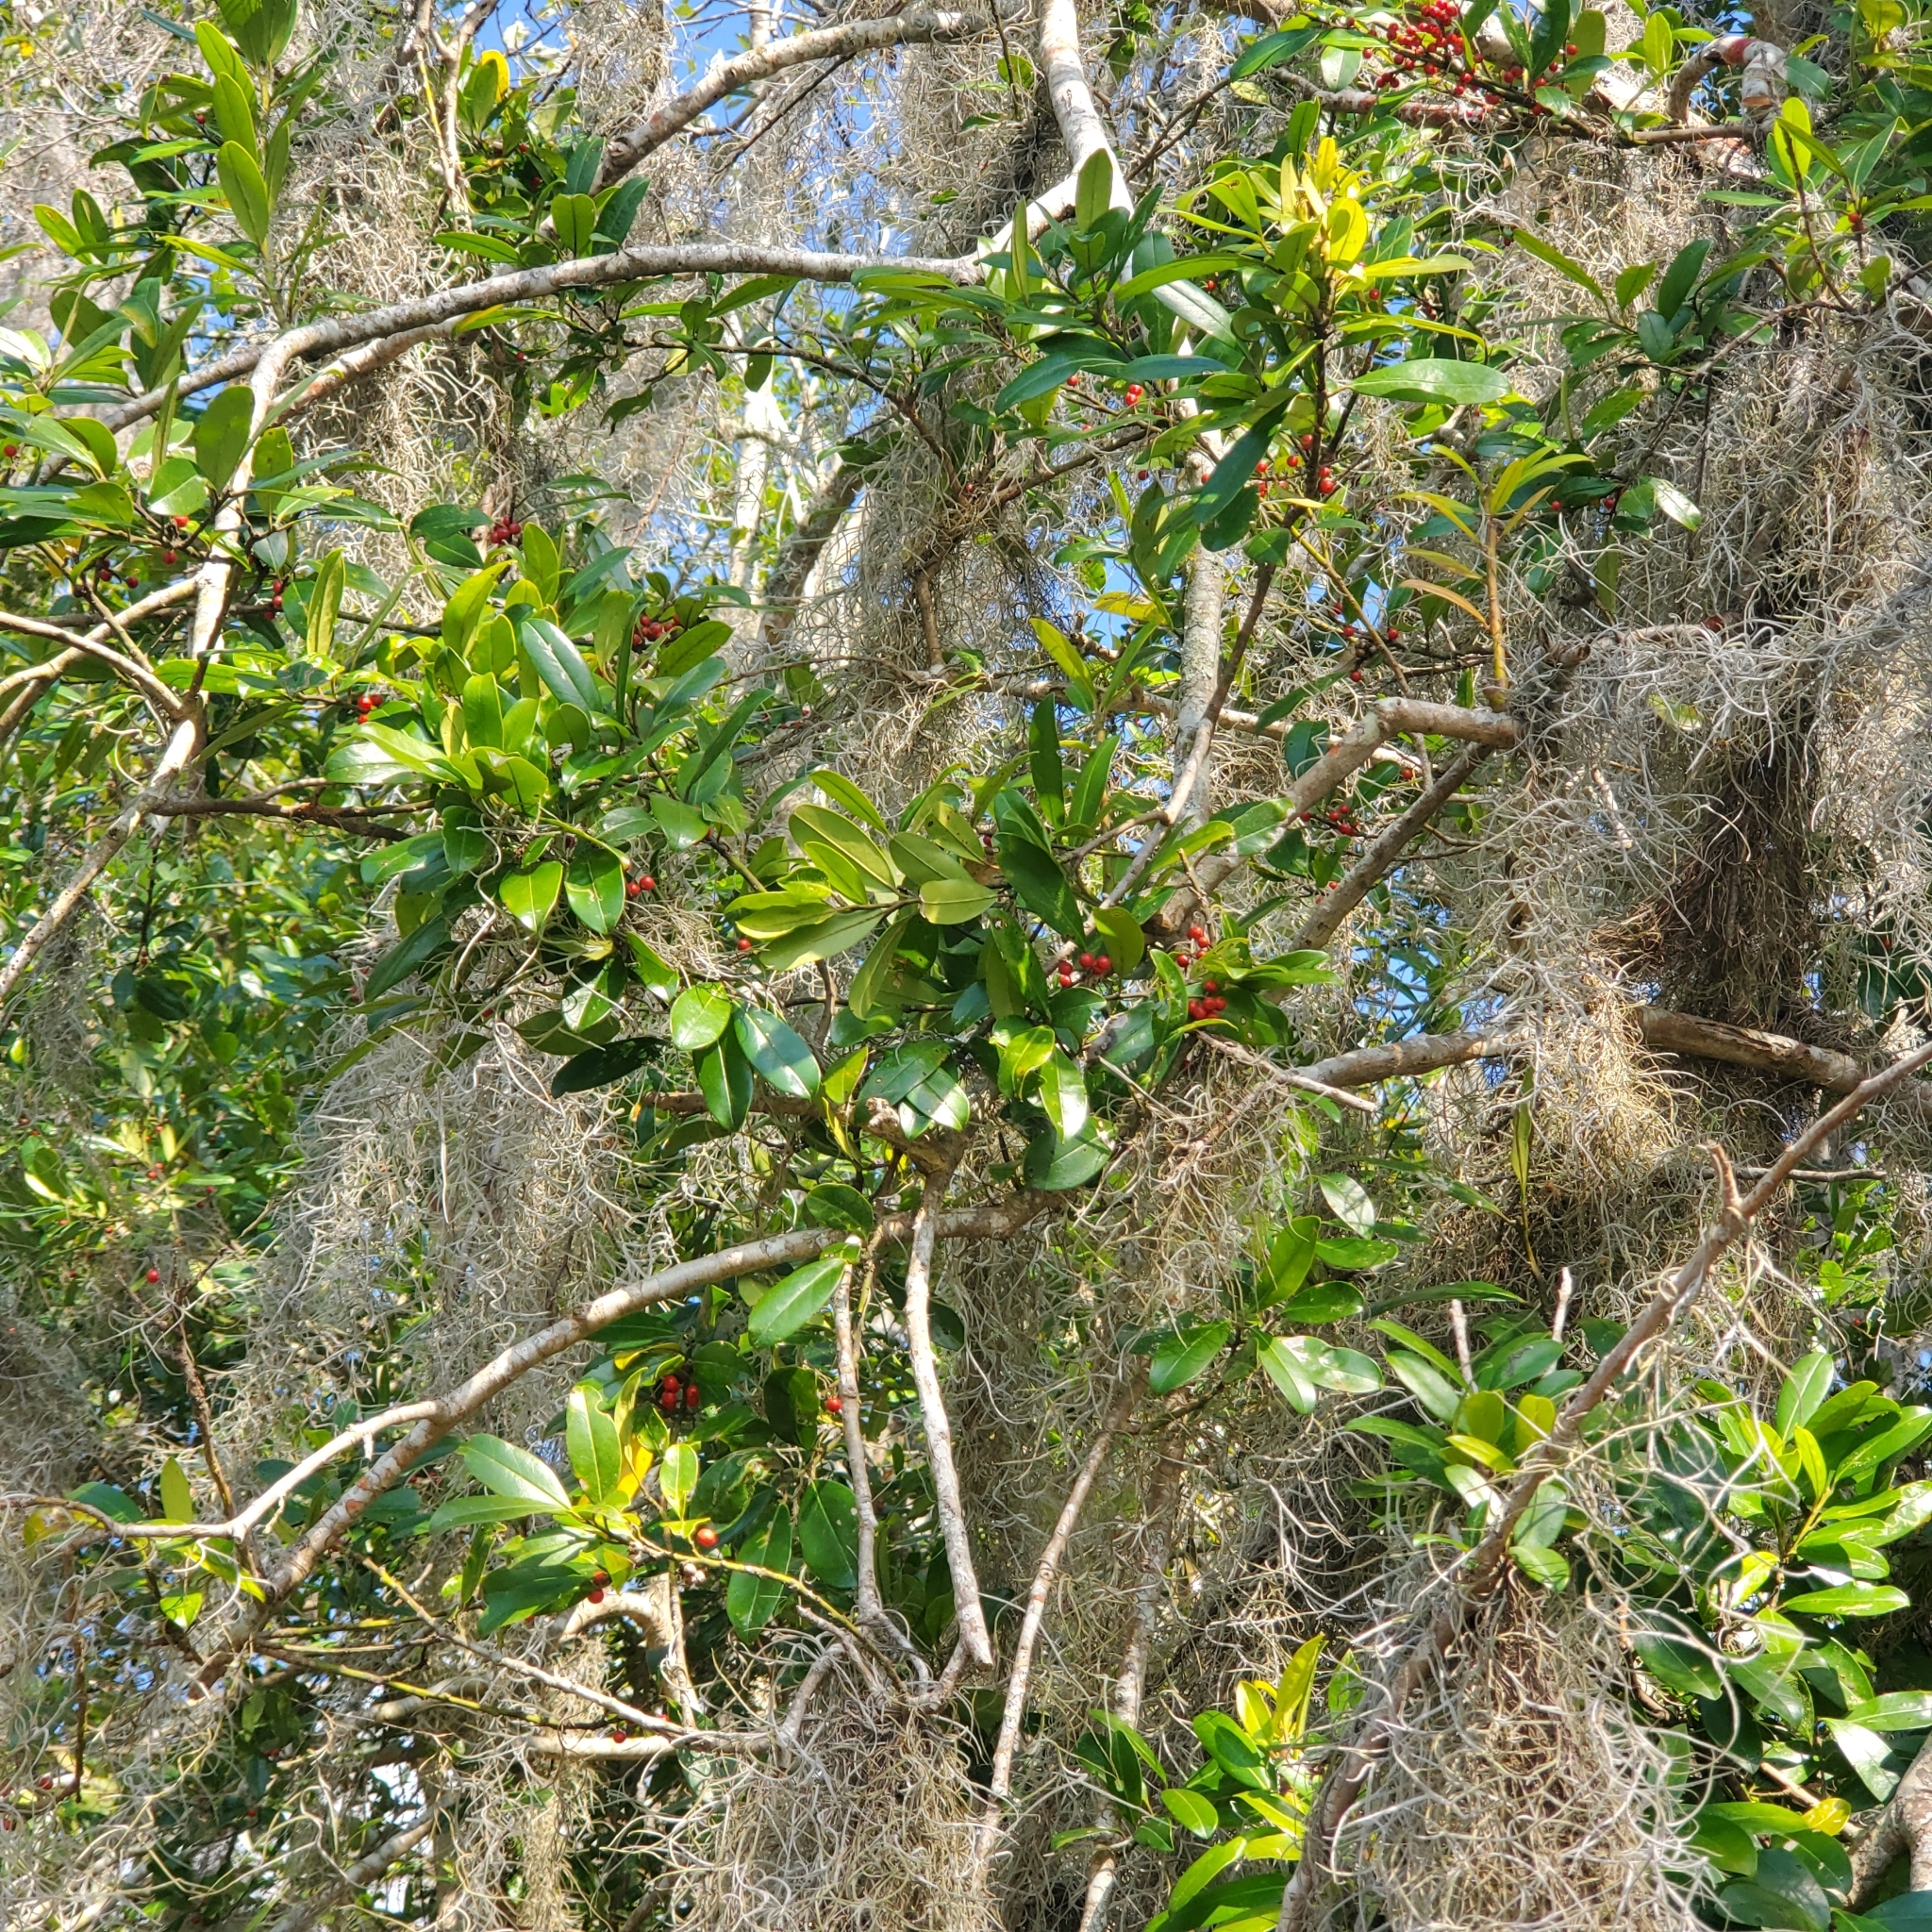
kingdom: Plantae
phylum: Tracheophyta
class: Magnoliopsida
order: Aquifoliales
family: Aquifoliaceae
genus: Ilex
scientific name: Ilex cassine
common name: Dahoon
